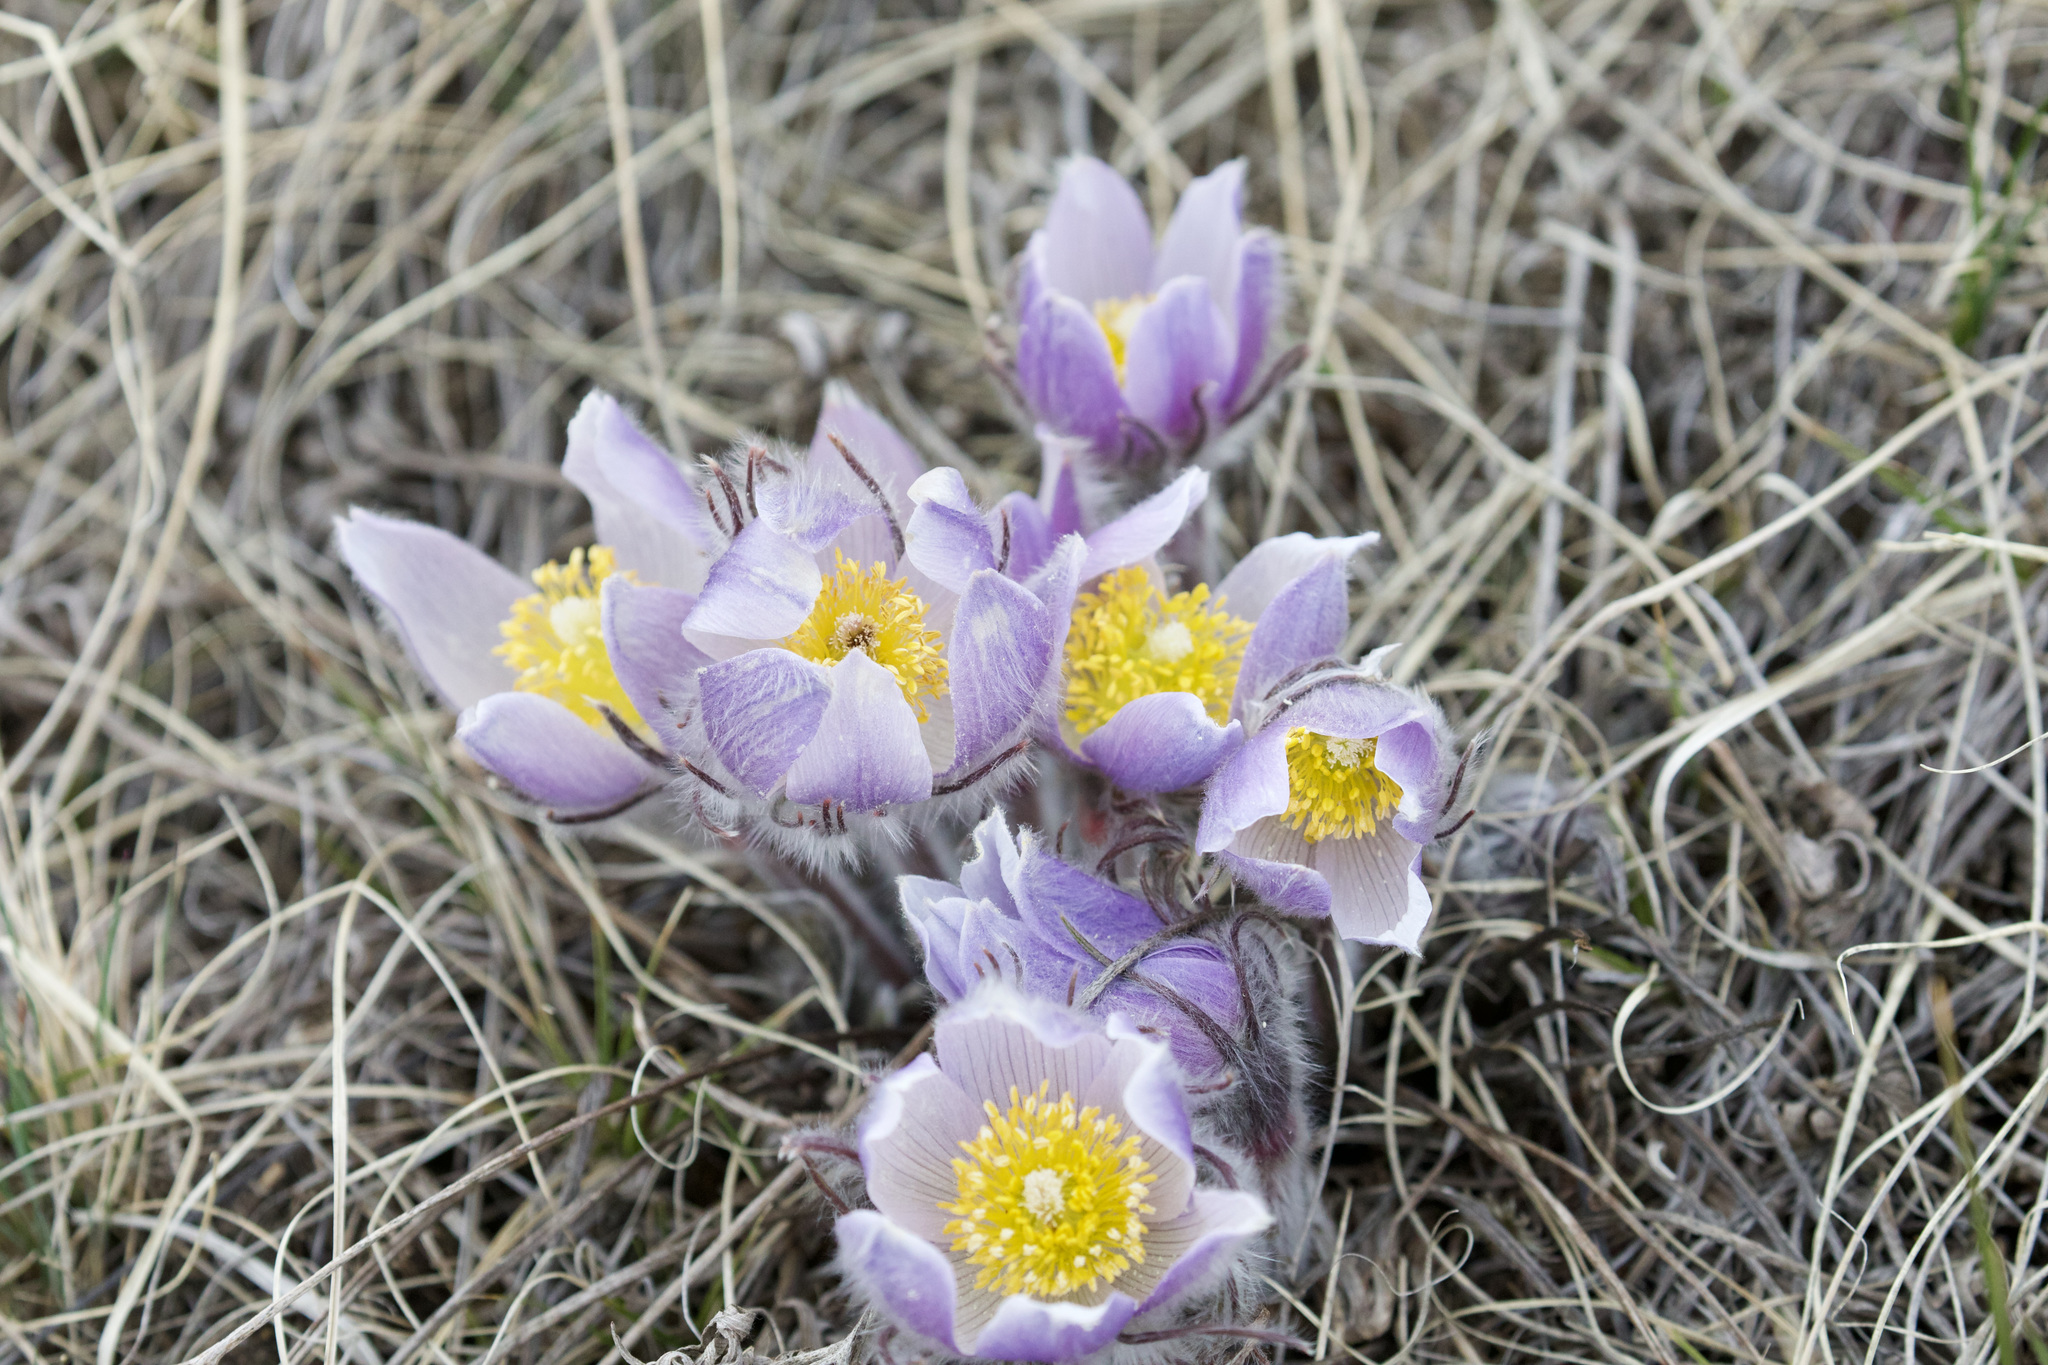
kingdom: Plantae
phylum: Tracheophyta
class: Magnoliopsida
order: Ranunculales
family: Ranunculaceae
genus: Pulsatilla
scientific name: Pulsatilla nuttalliana
